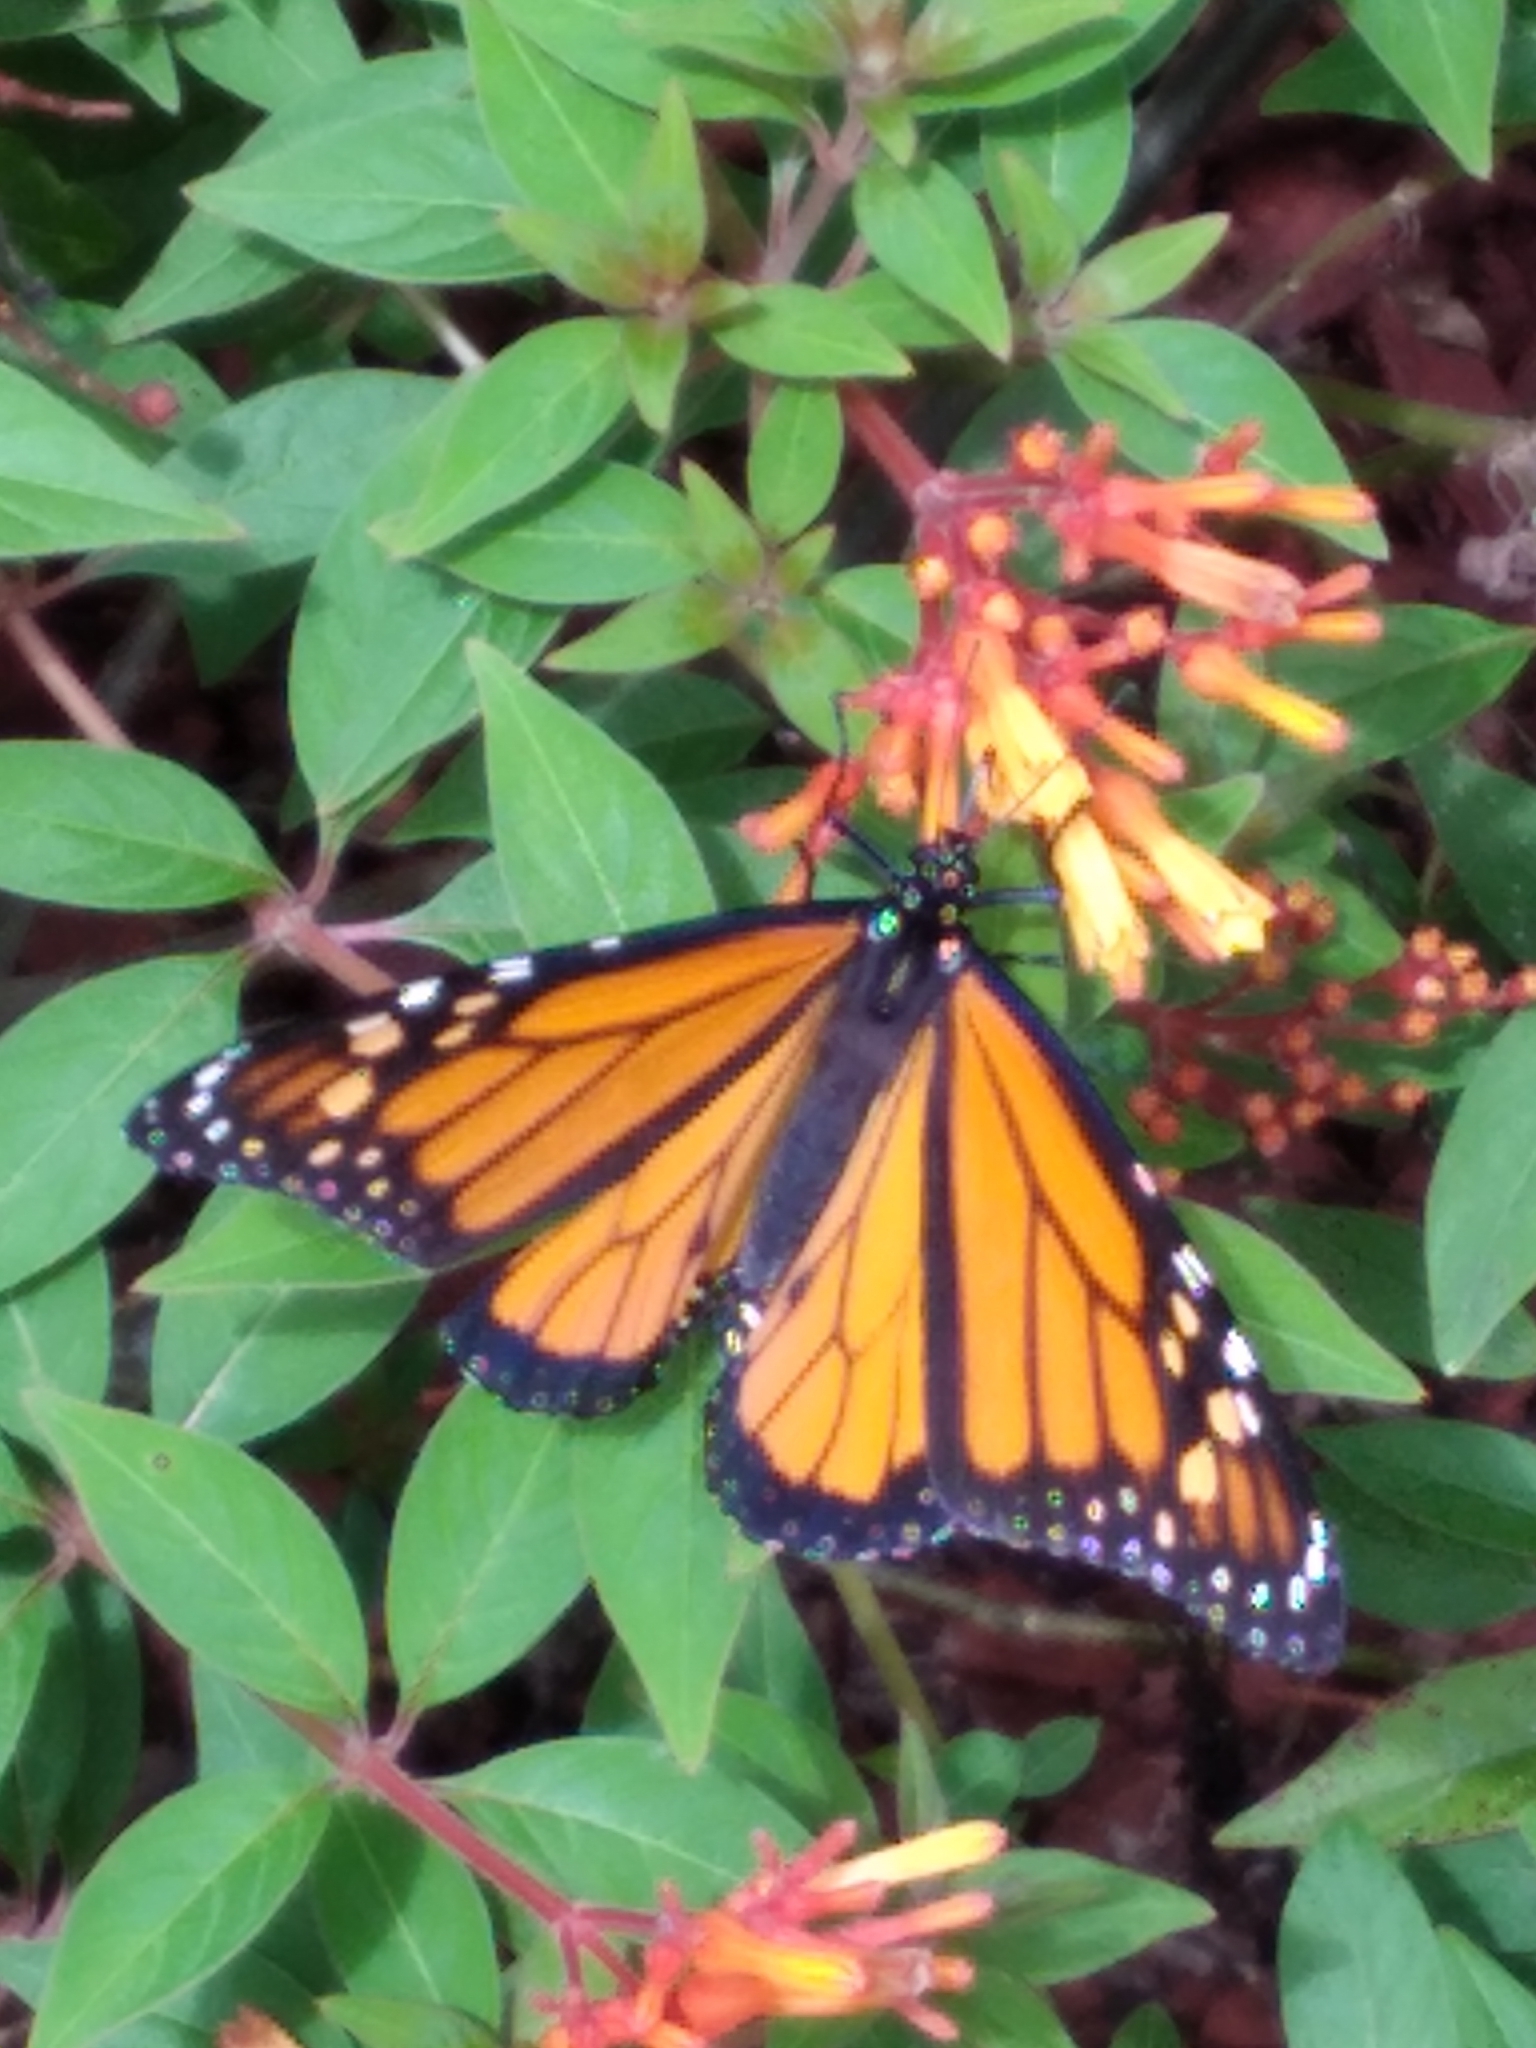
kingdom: Animalia
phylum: Arthropoda
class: Insecta
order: Lepidoptera
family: Nymphalidae
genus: Danaus
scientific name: Danaus plexippus
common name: Monarch
